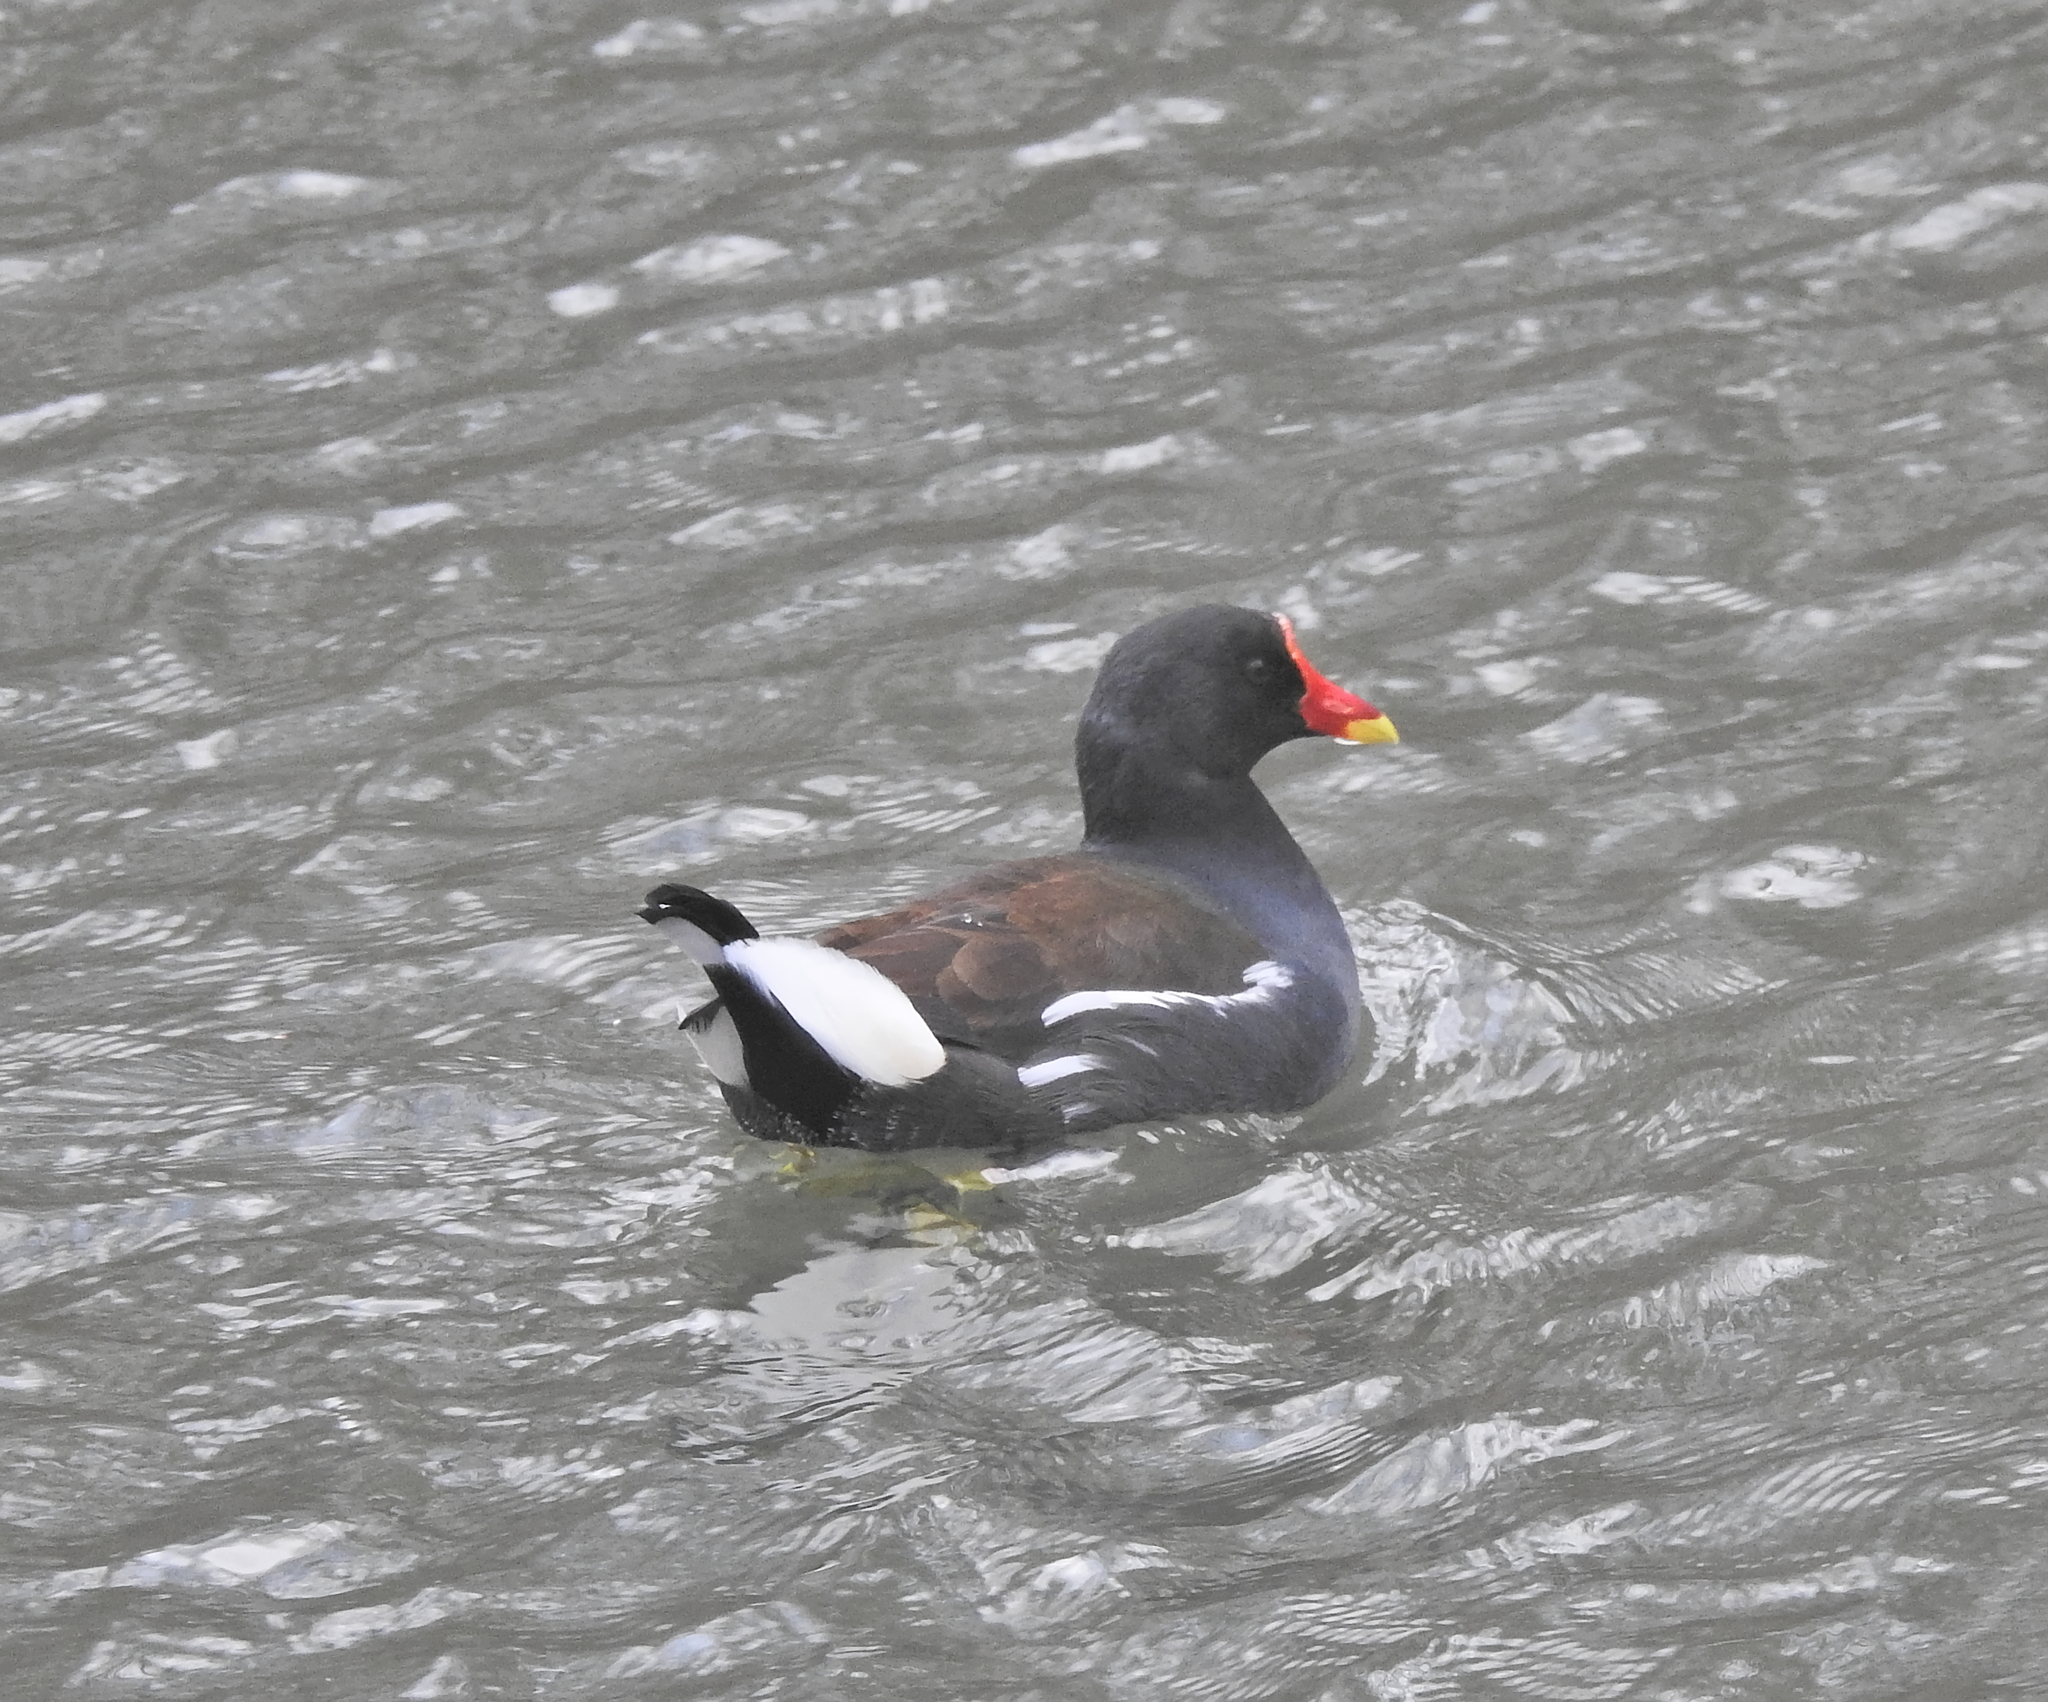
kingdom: Animalia
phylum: Chordata
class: Aves
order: Gruiformes
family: Rallidae
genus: Gallinula
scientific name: Gallinula chloropus
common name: Common moorhen
